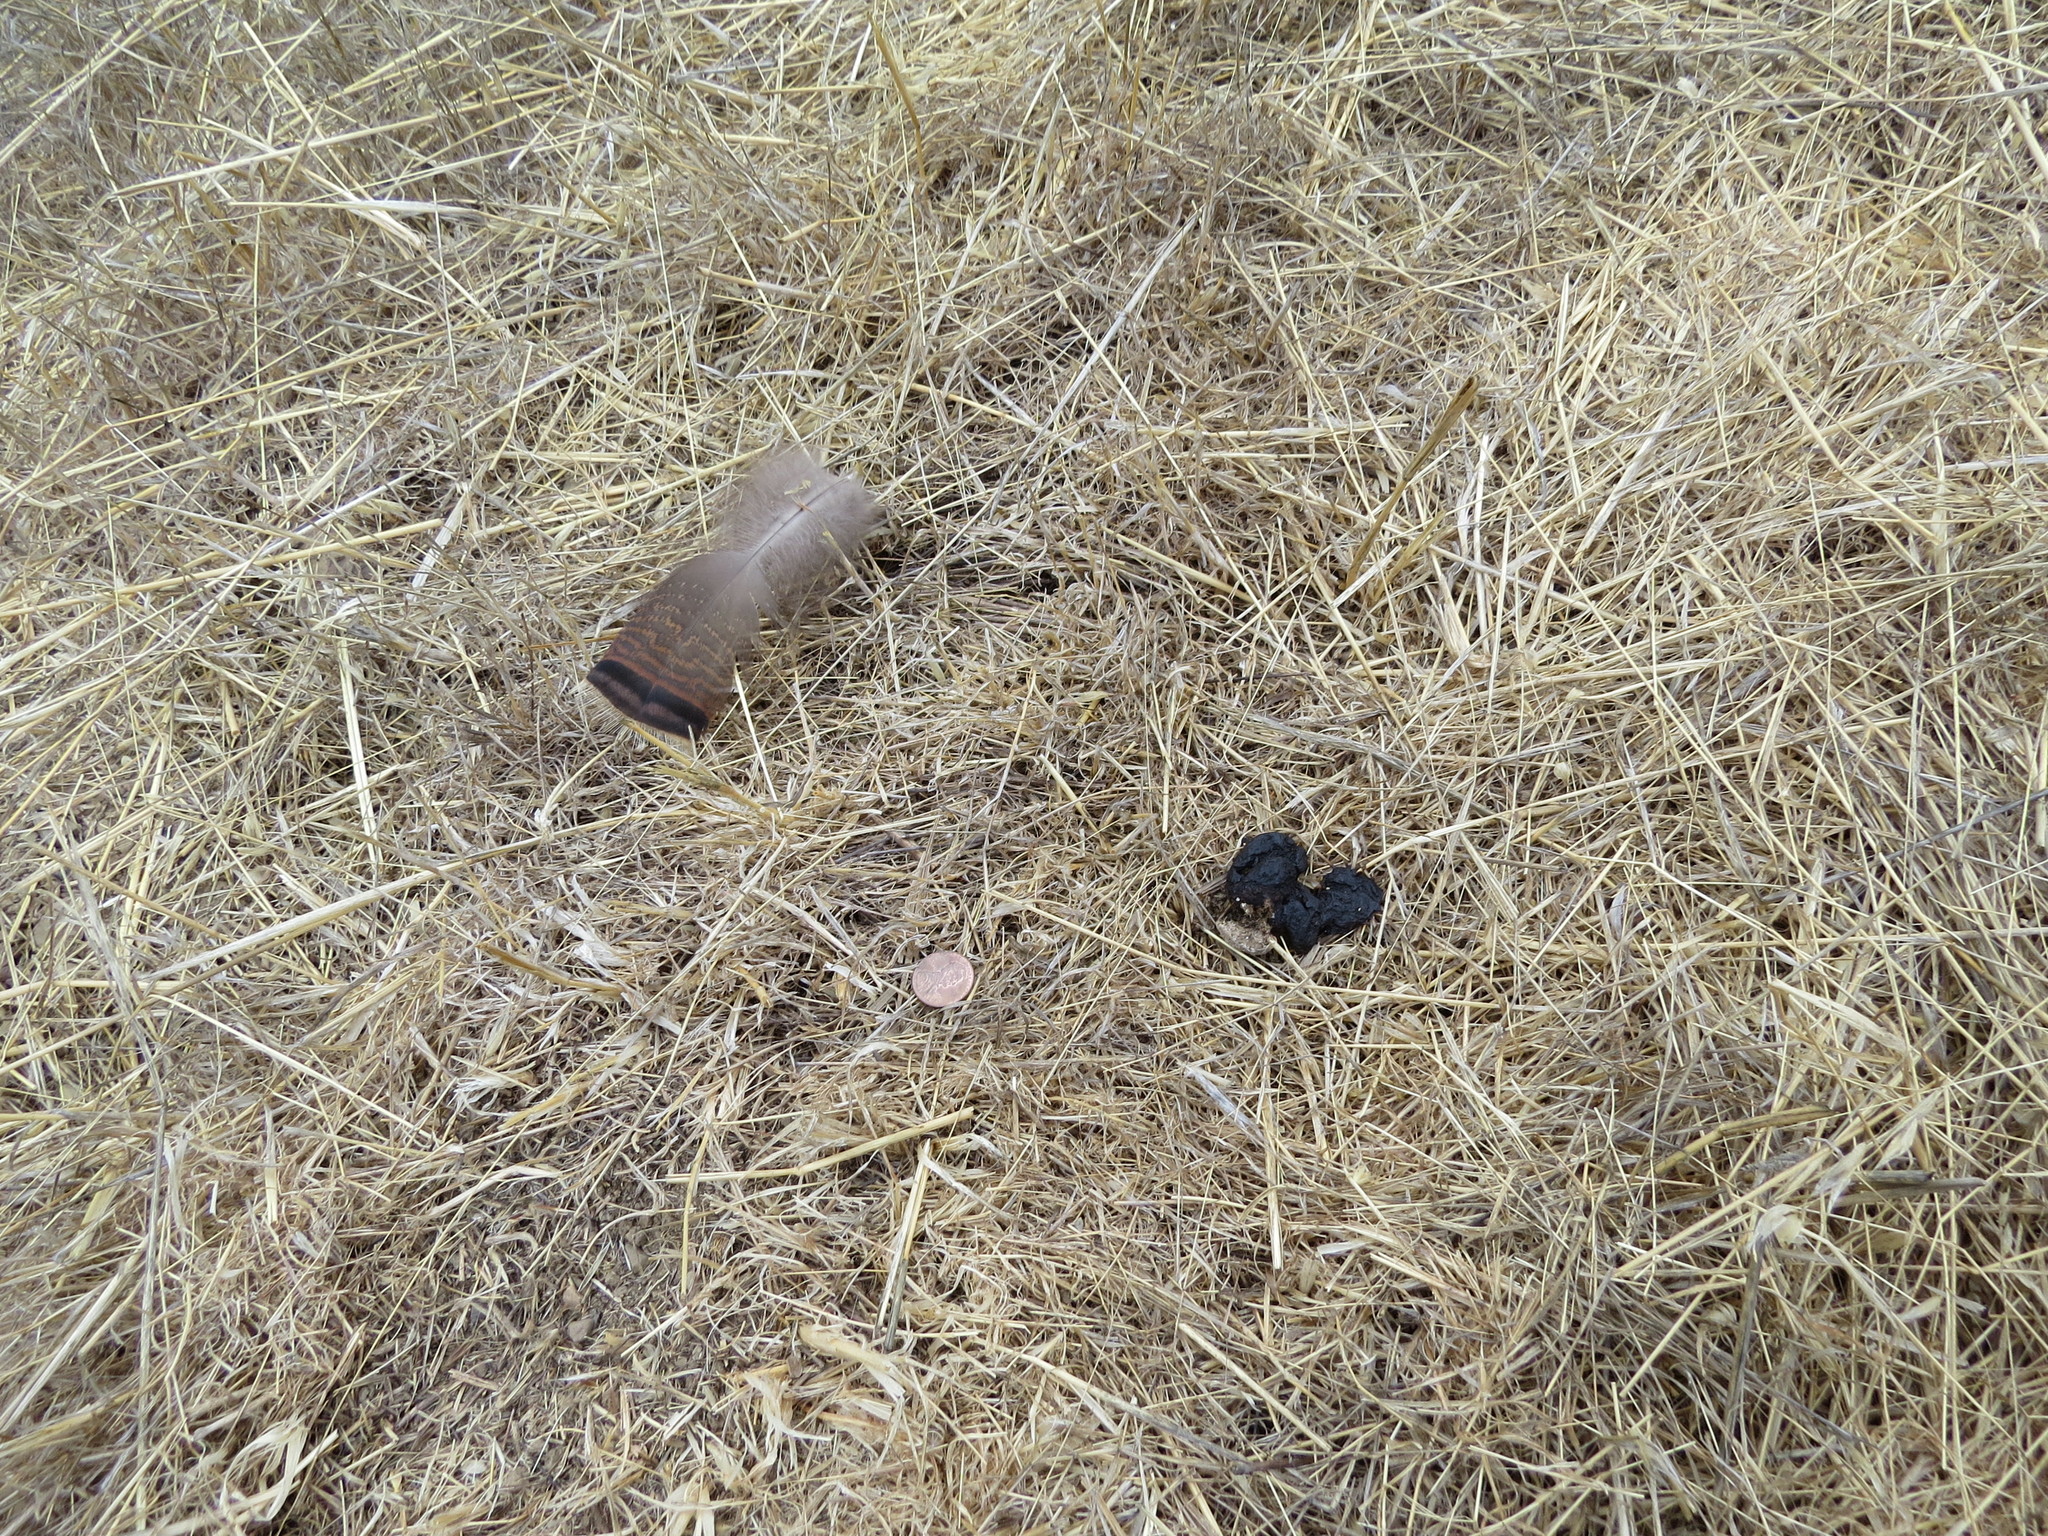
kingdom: Animalia
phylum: Chordata
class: Aves
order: Galliformes
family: Phasianidae
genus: Meleagris
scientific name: Meleagris gallopavo
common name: Wild turkey
